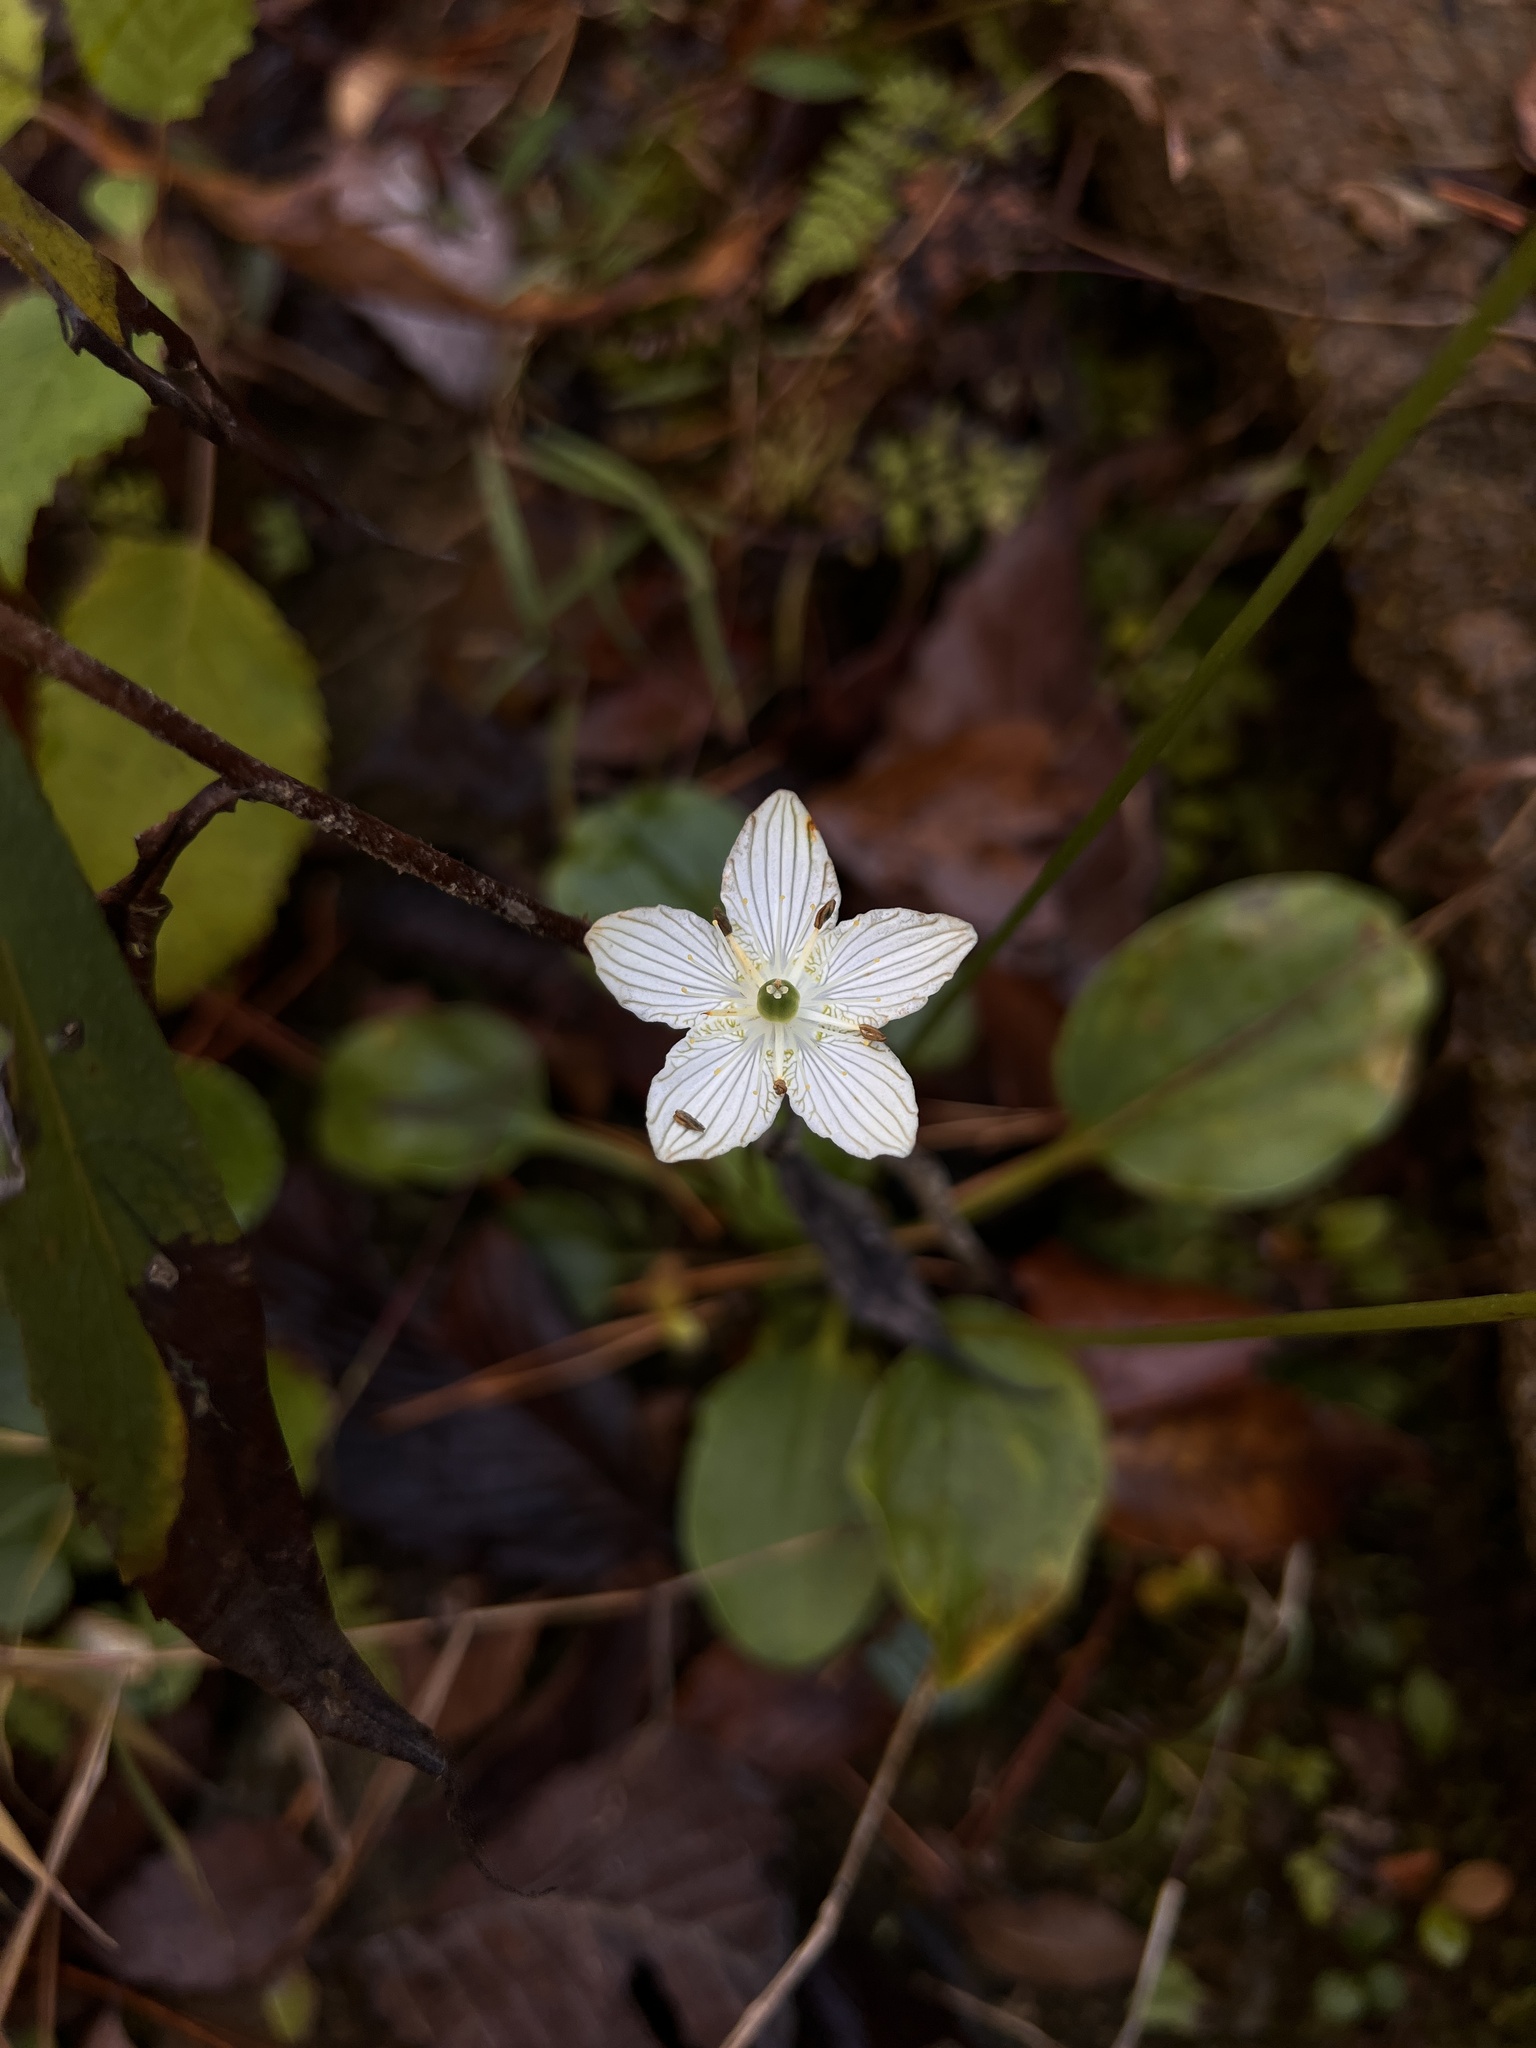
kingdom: Plantae
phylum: Tracheophyta
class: Magnoliopsida
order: Celastrales
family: Parnassiaceae
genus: Parnassia
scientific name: Parnassia grandifolia
